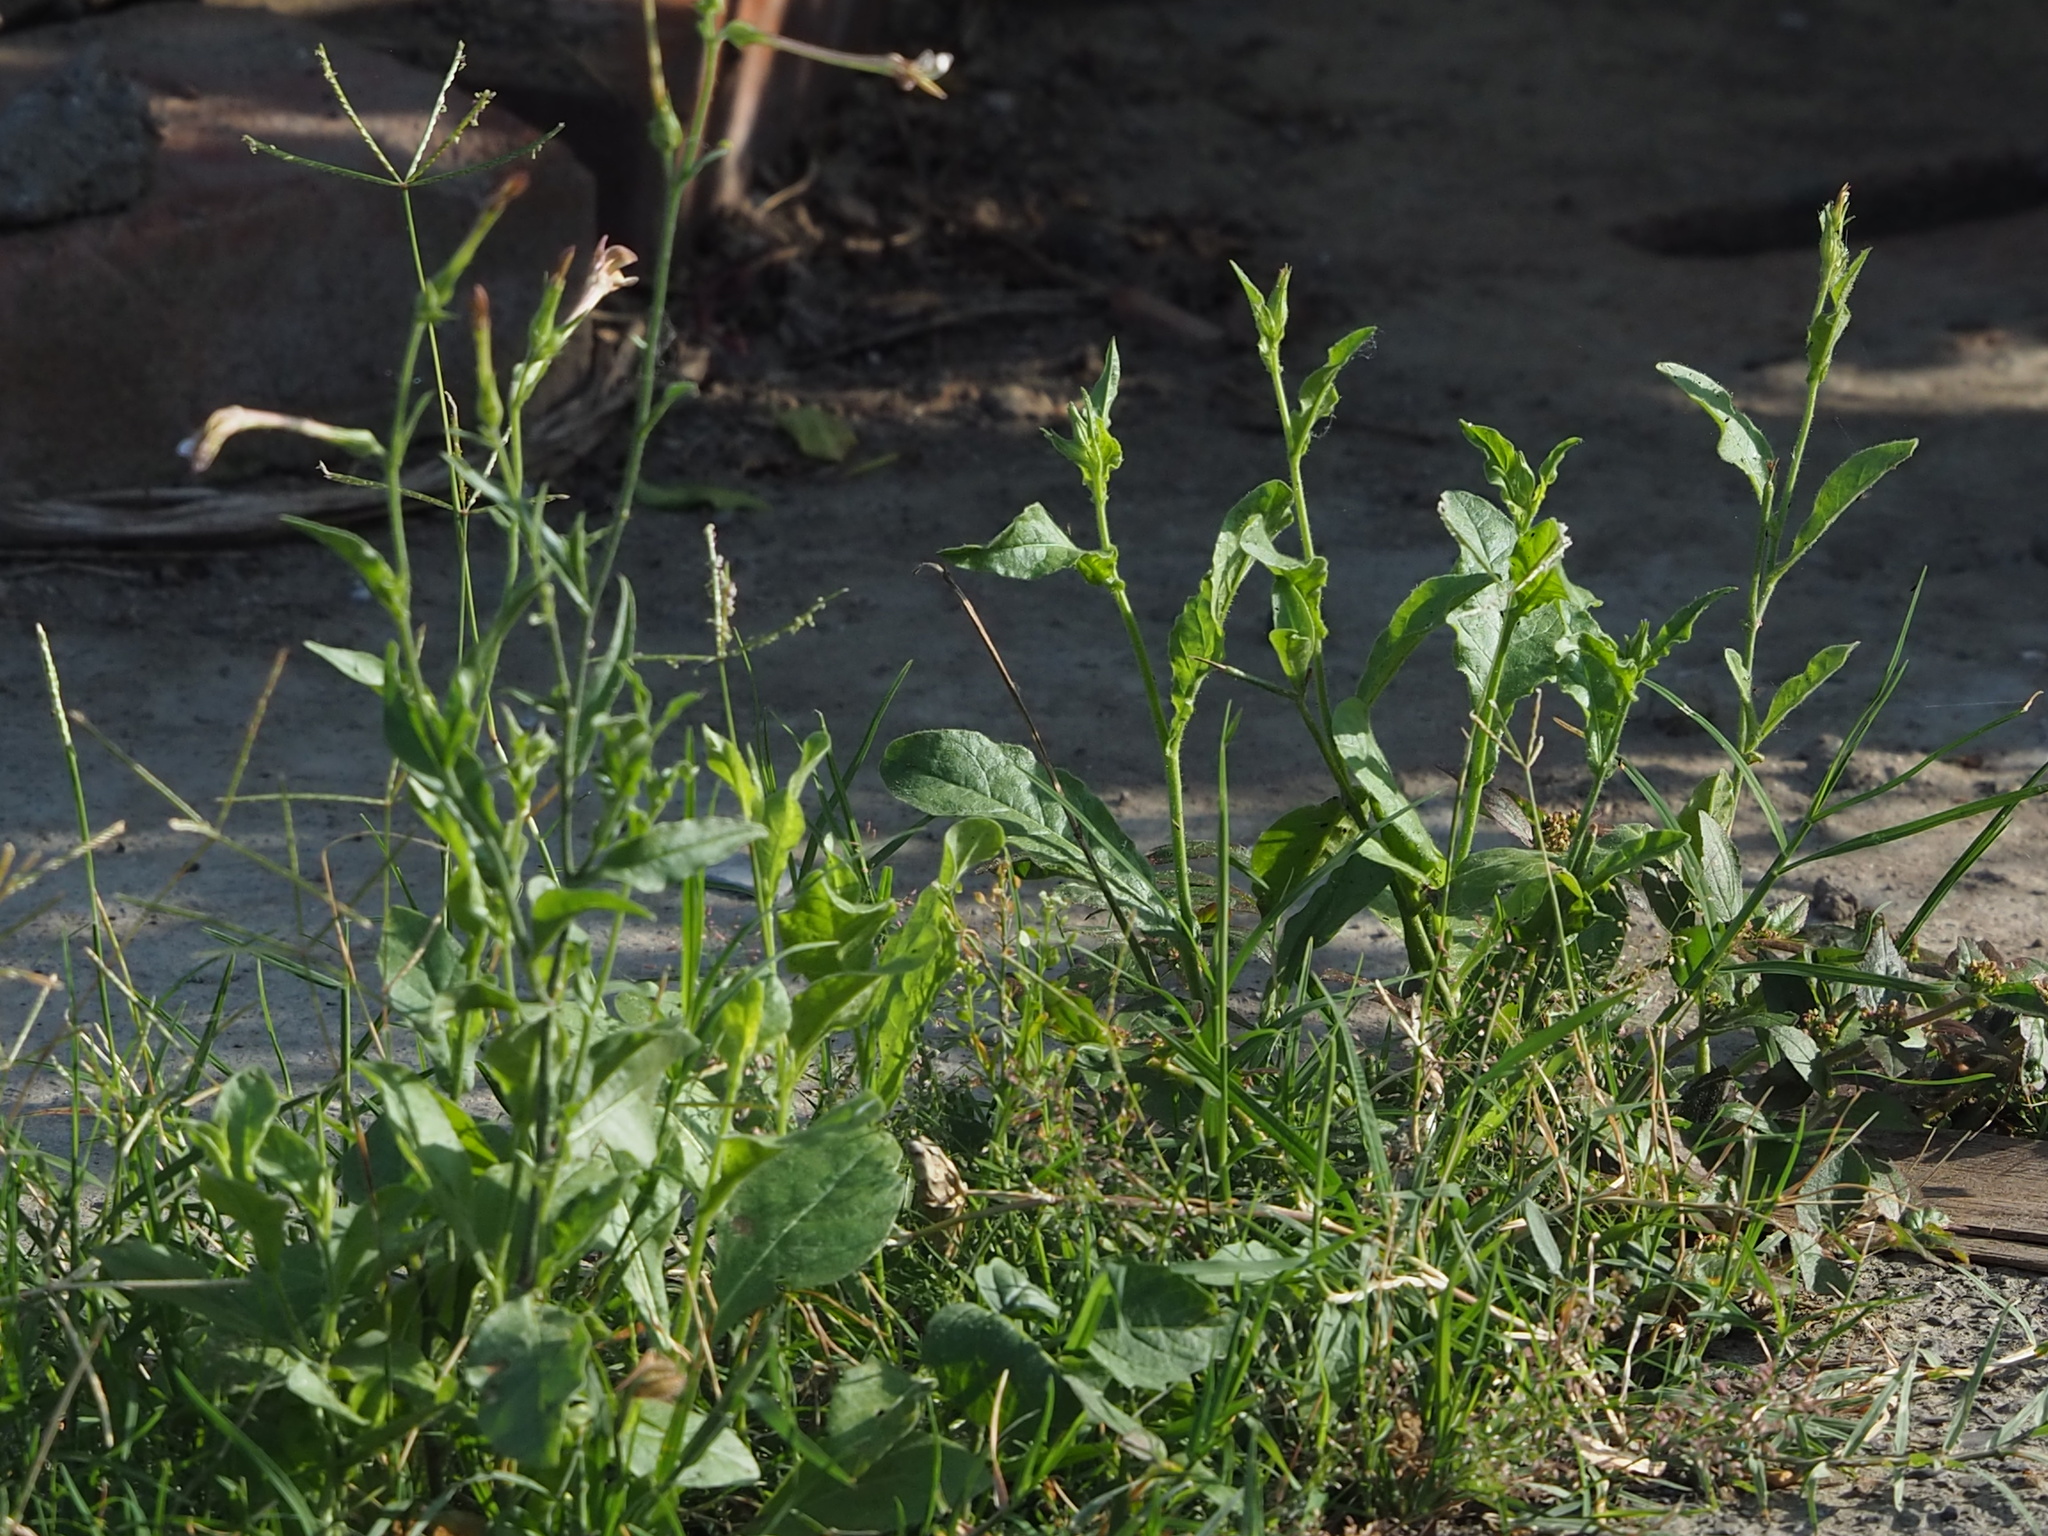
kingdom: Plantae
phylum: Tracheophyta
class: Magnoliopsida
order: Solanales
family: Solanaceae
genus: Nicotiana
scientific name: Nicotiana plumbaginifolia
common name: Tex-mex tobacco
